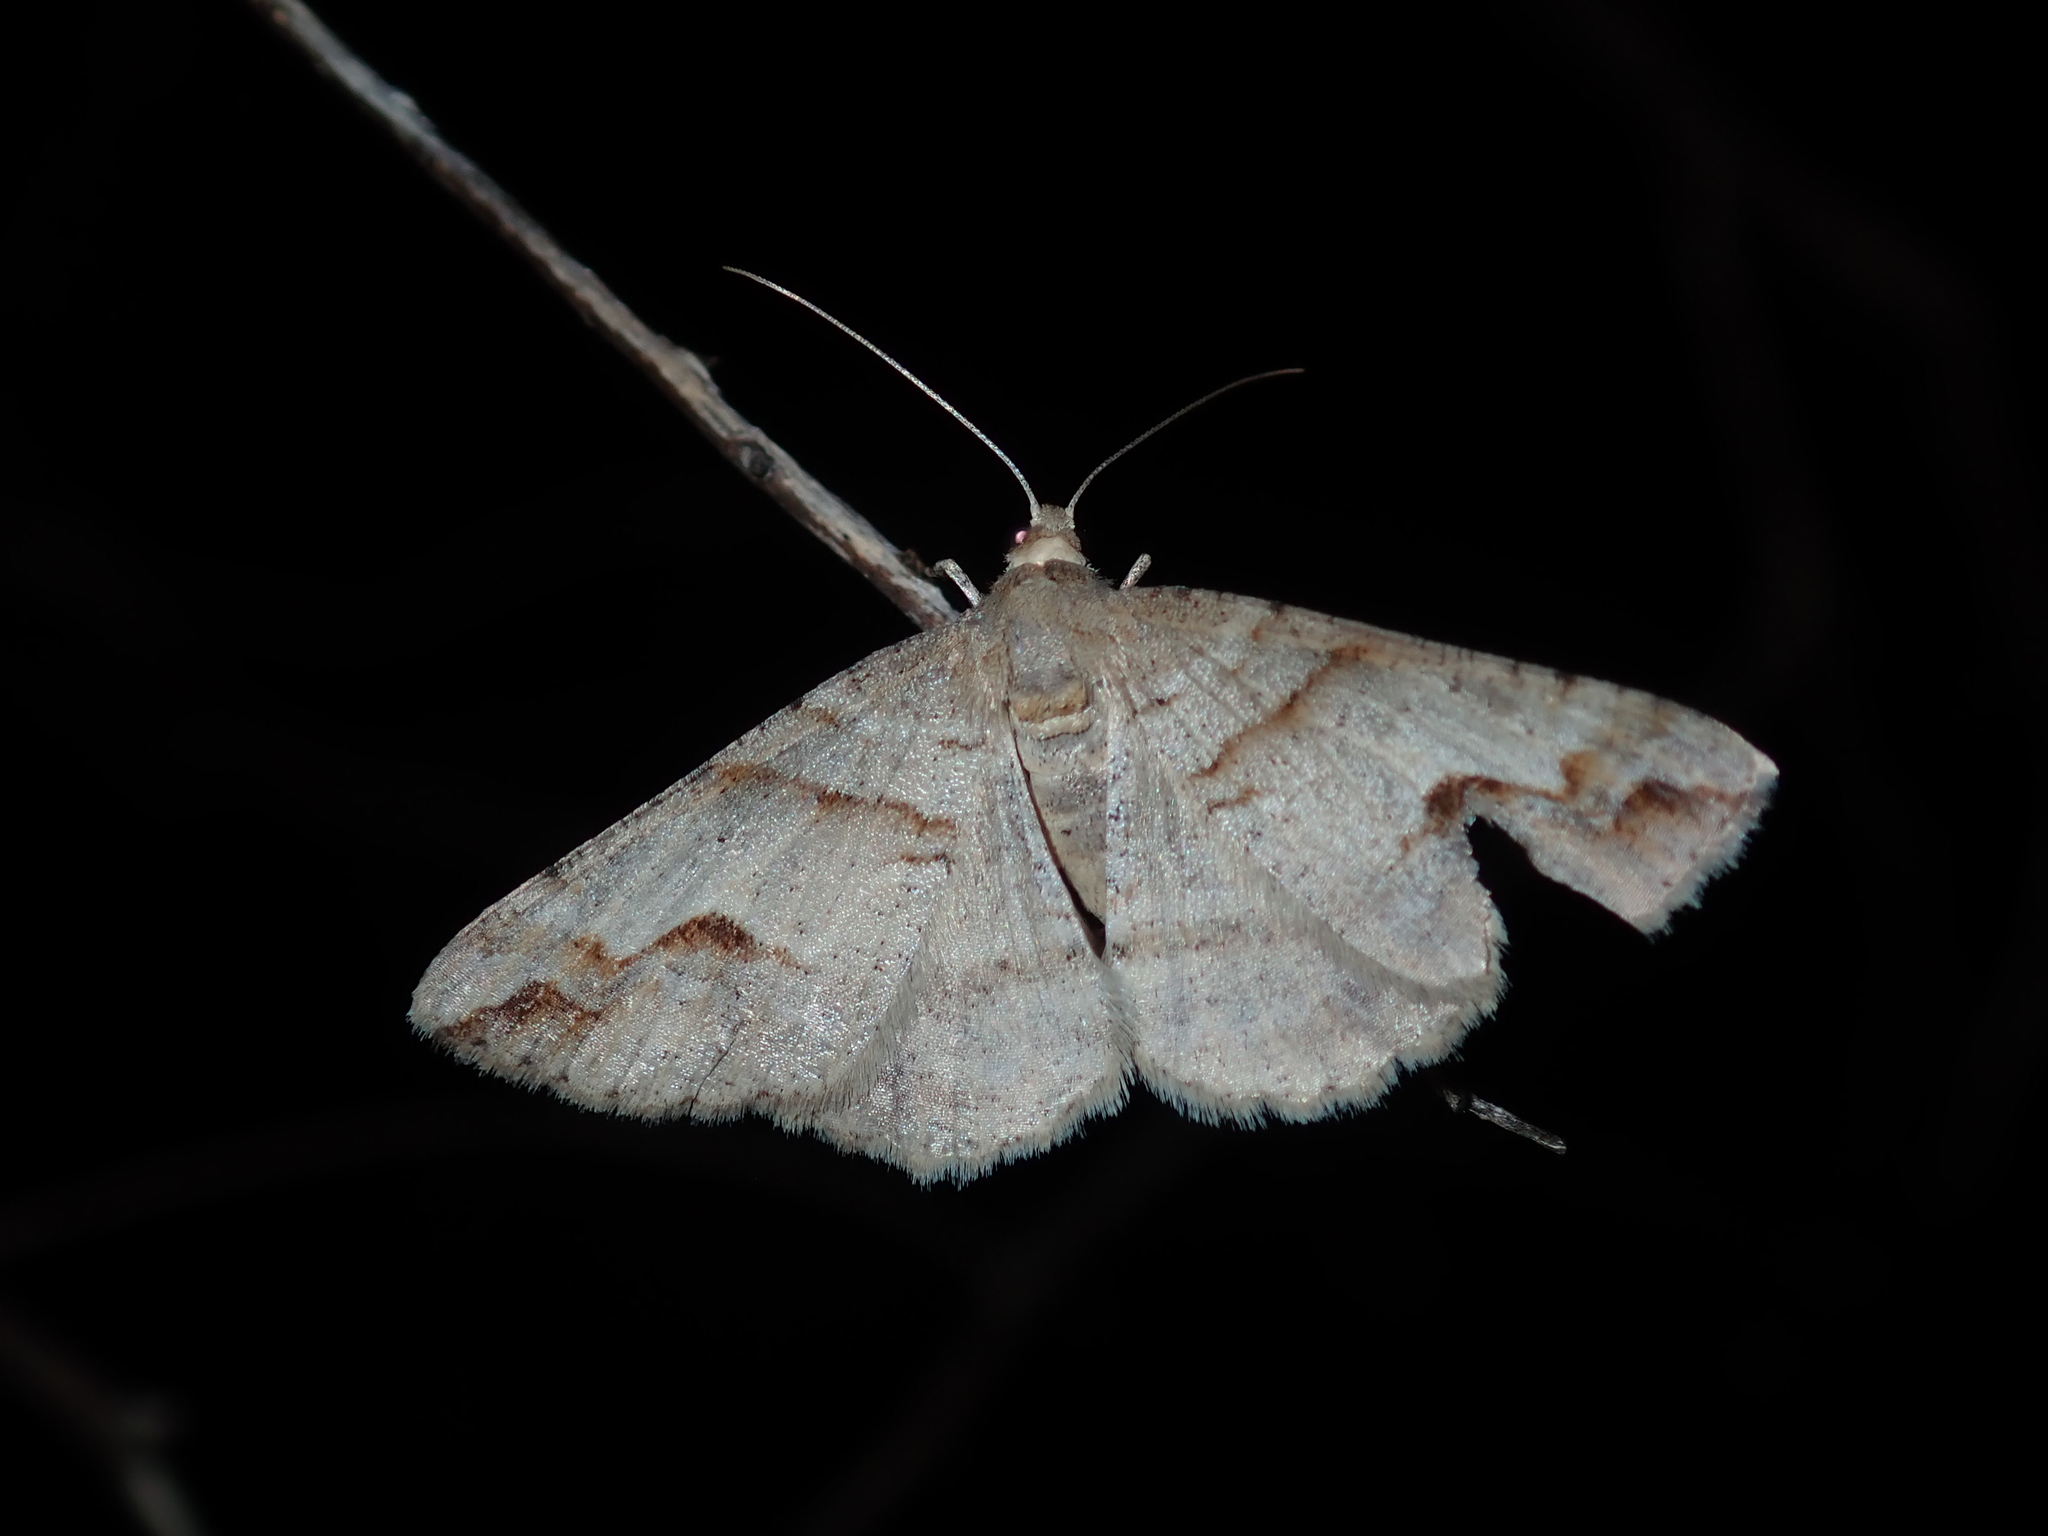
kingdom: Animalia
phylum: Arthropoda
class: Insecta
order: Lepidoptera
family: Geometridae
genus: Syneora
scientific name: Syneora emmelodes
